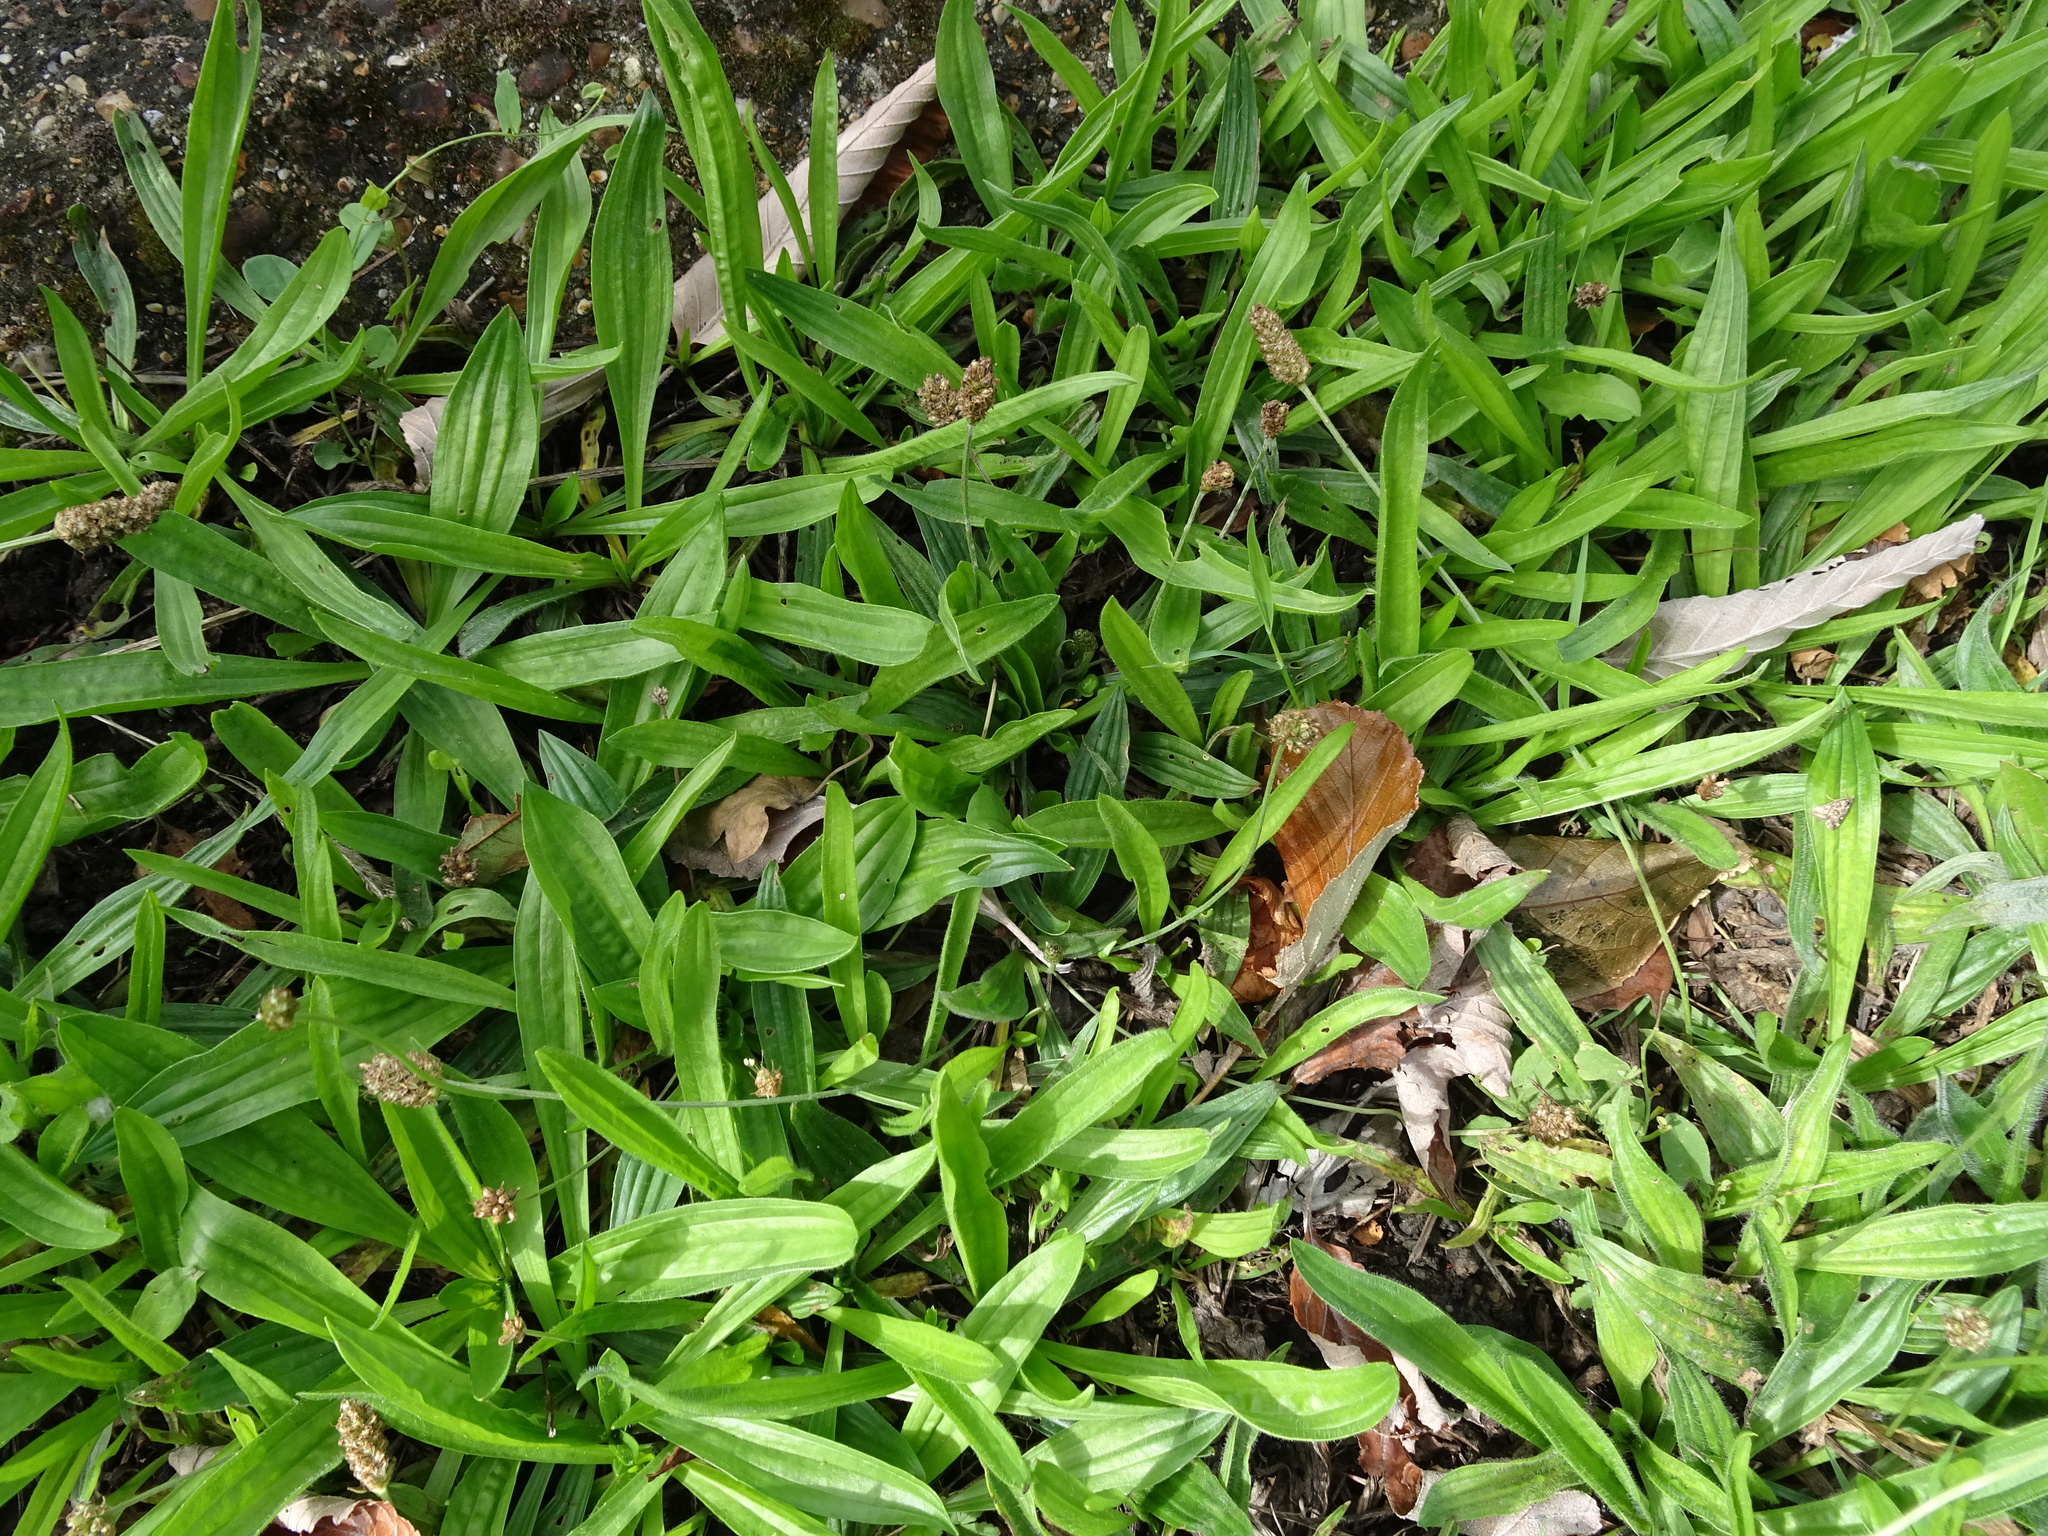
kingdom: Plantae
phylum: Tracheophyta
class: Magnoliopsida
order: Lamiales
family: Plantaginaceae
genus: Plantago
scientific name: Plantago lanceolata
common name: Ribwort plantain
